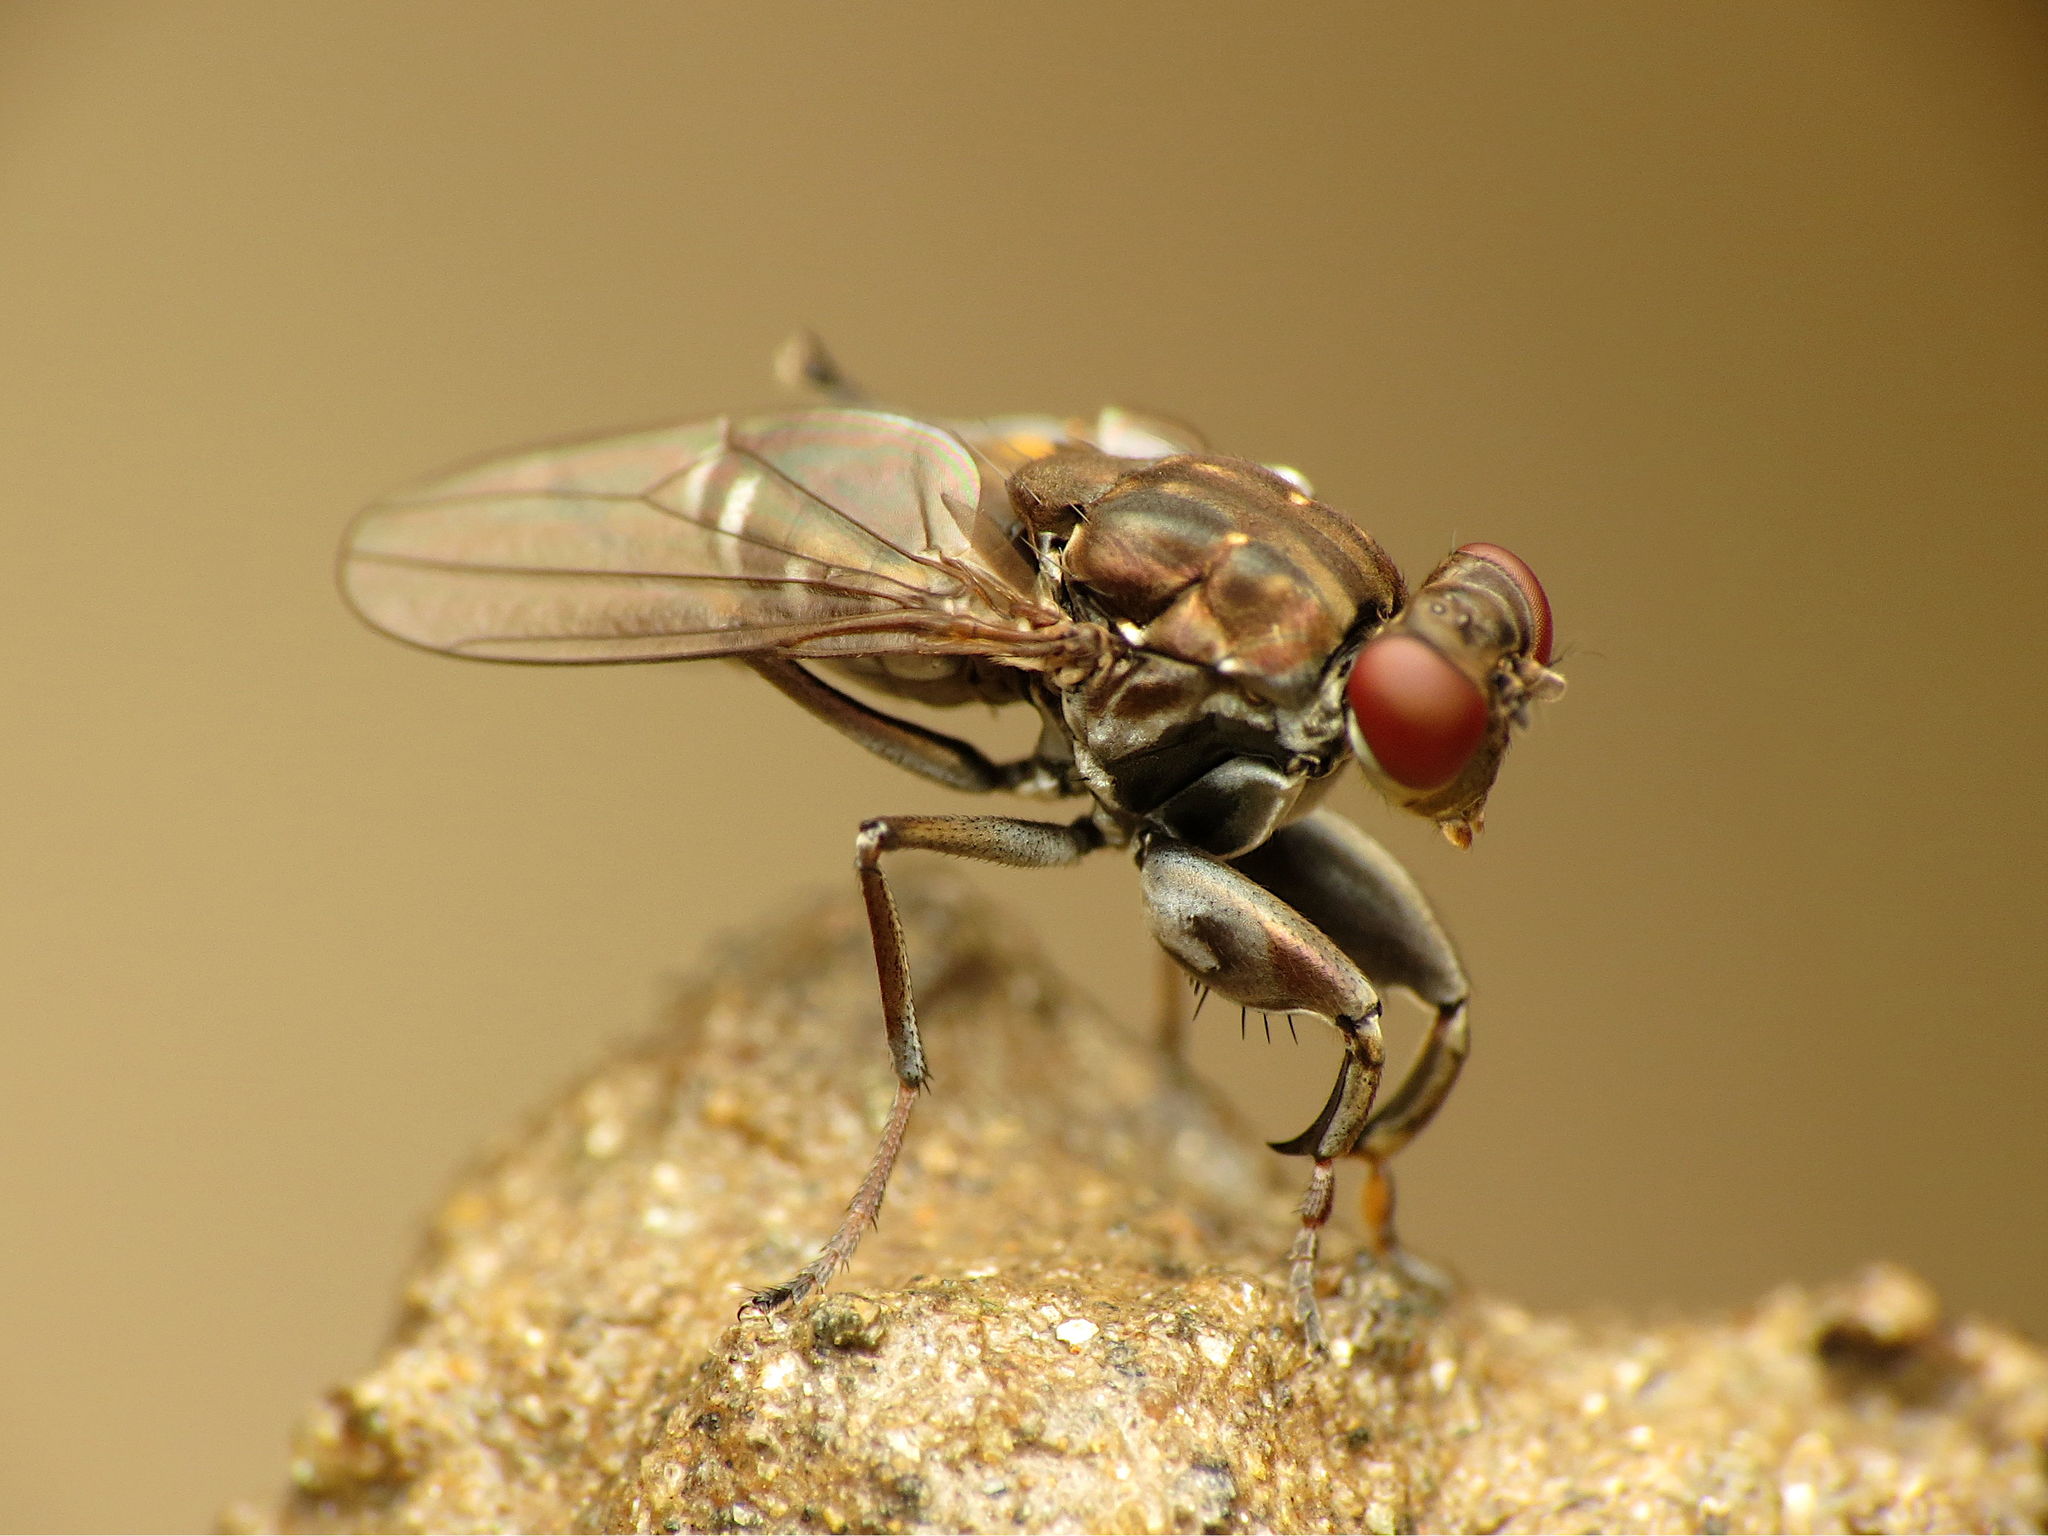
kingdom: Animalia
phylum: Arthropoda
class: Insecta
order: Diptera
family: Ephydridae
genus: Ochthera
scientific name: Ochthera tuberculata
